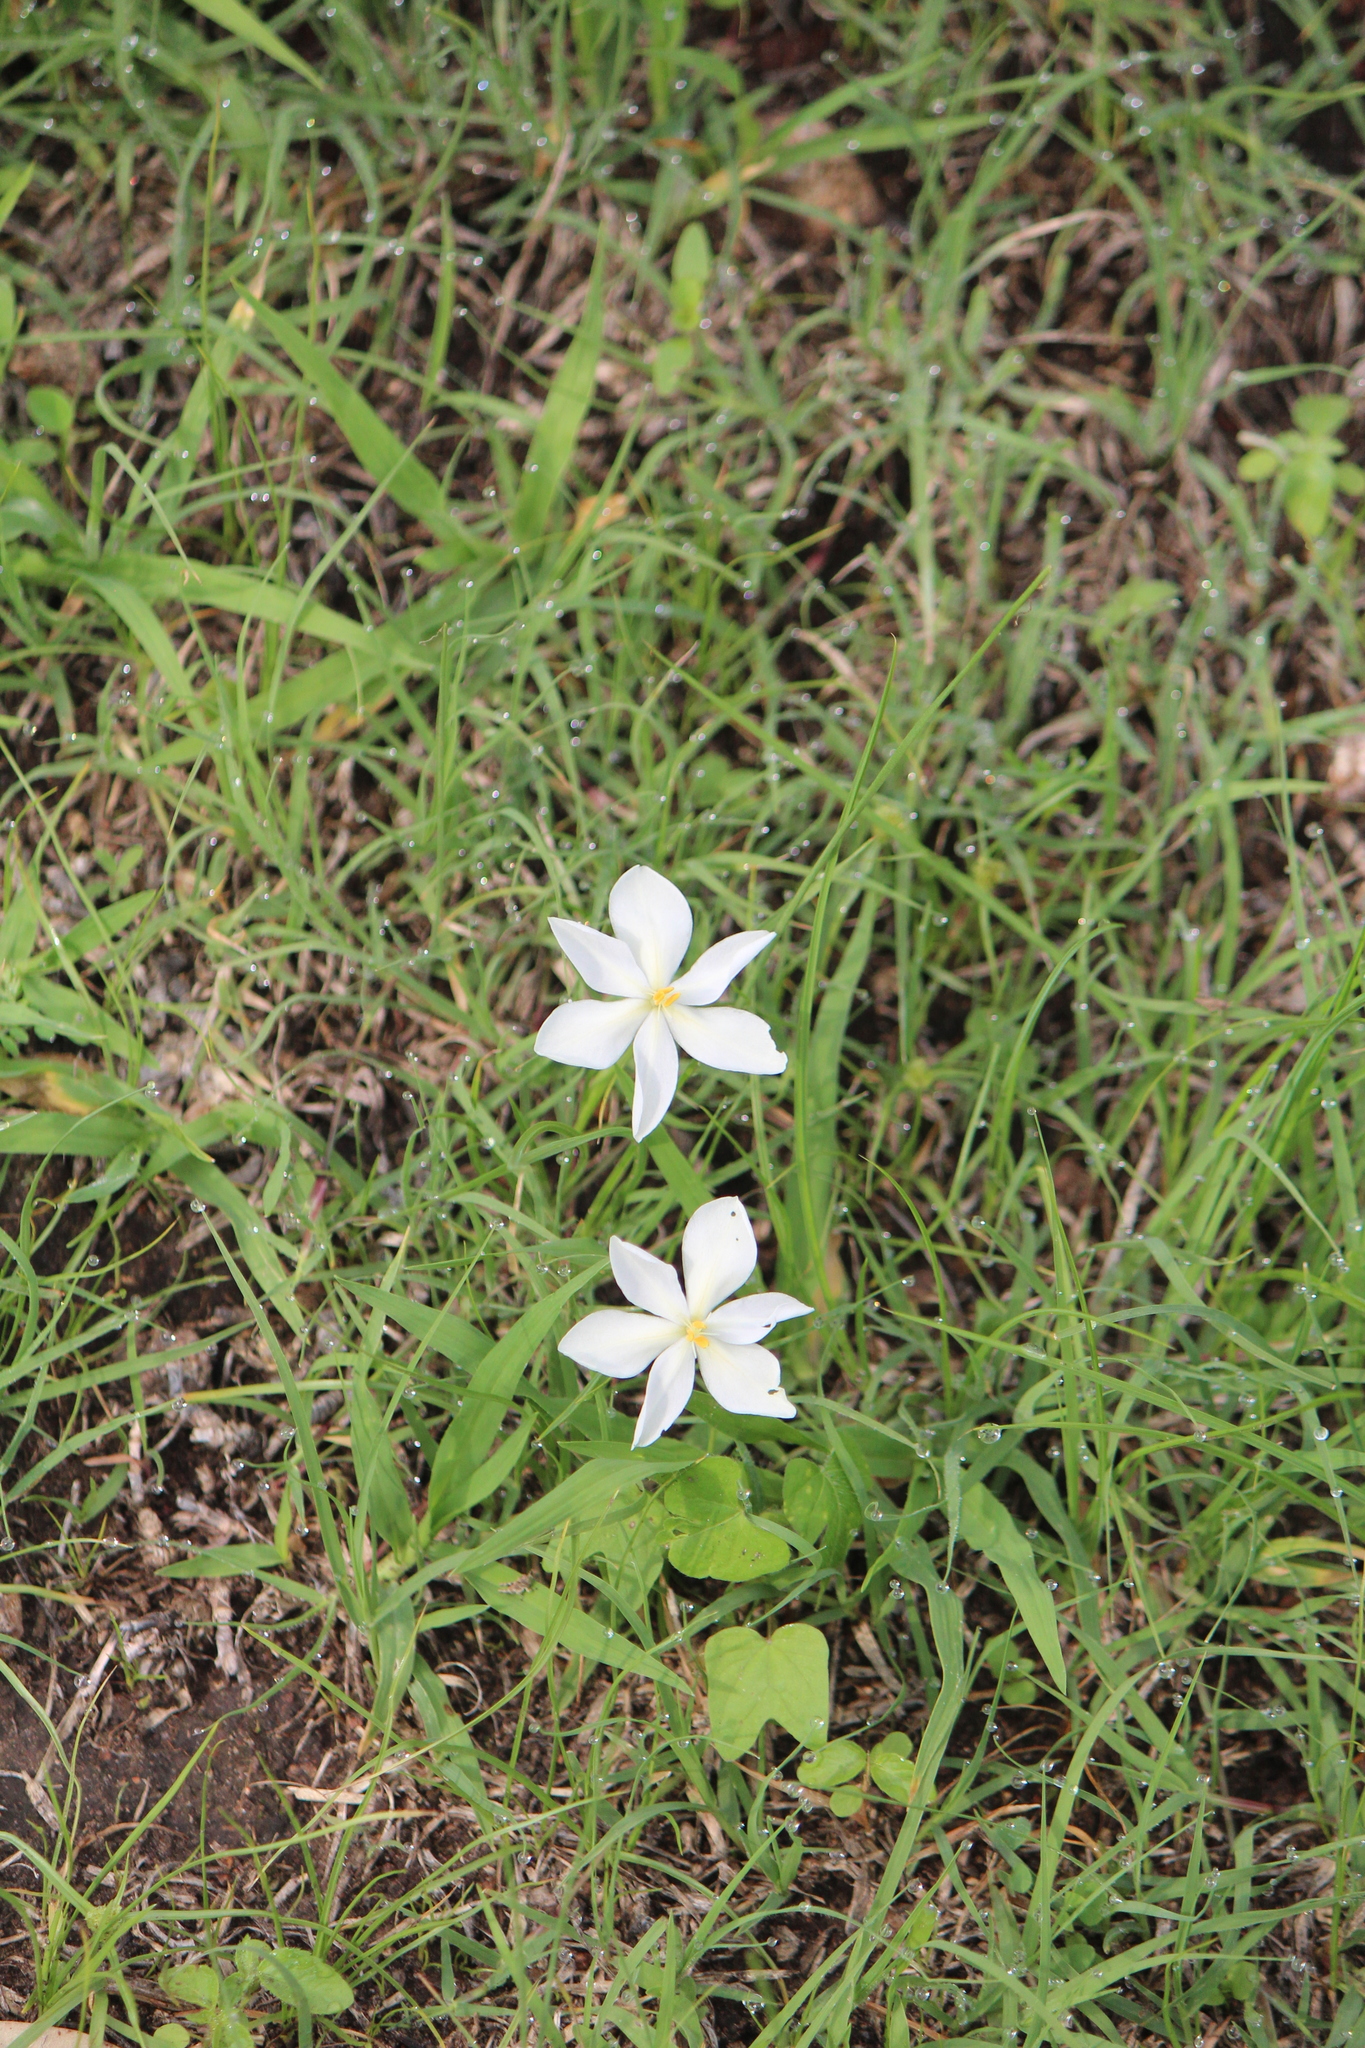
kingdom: Plantae
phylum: Tracheophyta
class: Liliopsida
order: Asparagales
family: Iridaceae
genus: Nemastylis
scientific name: Nemastylis tenuis
